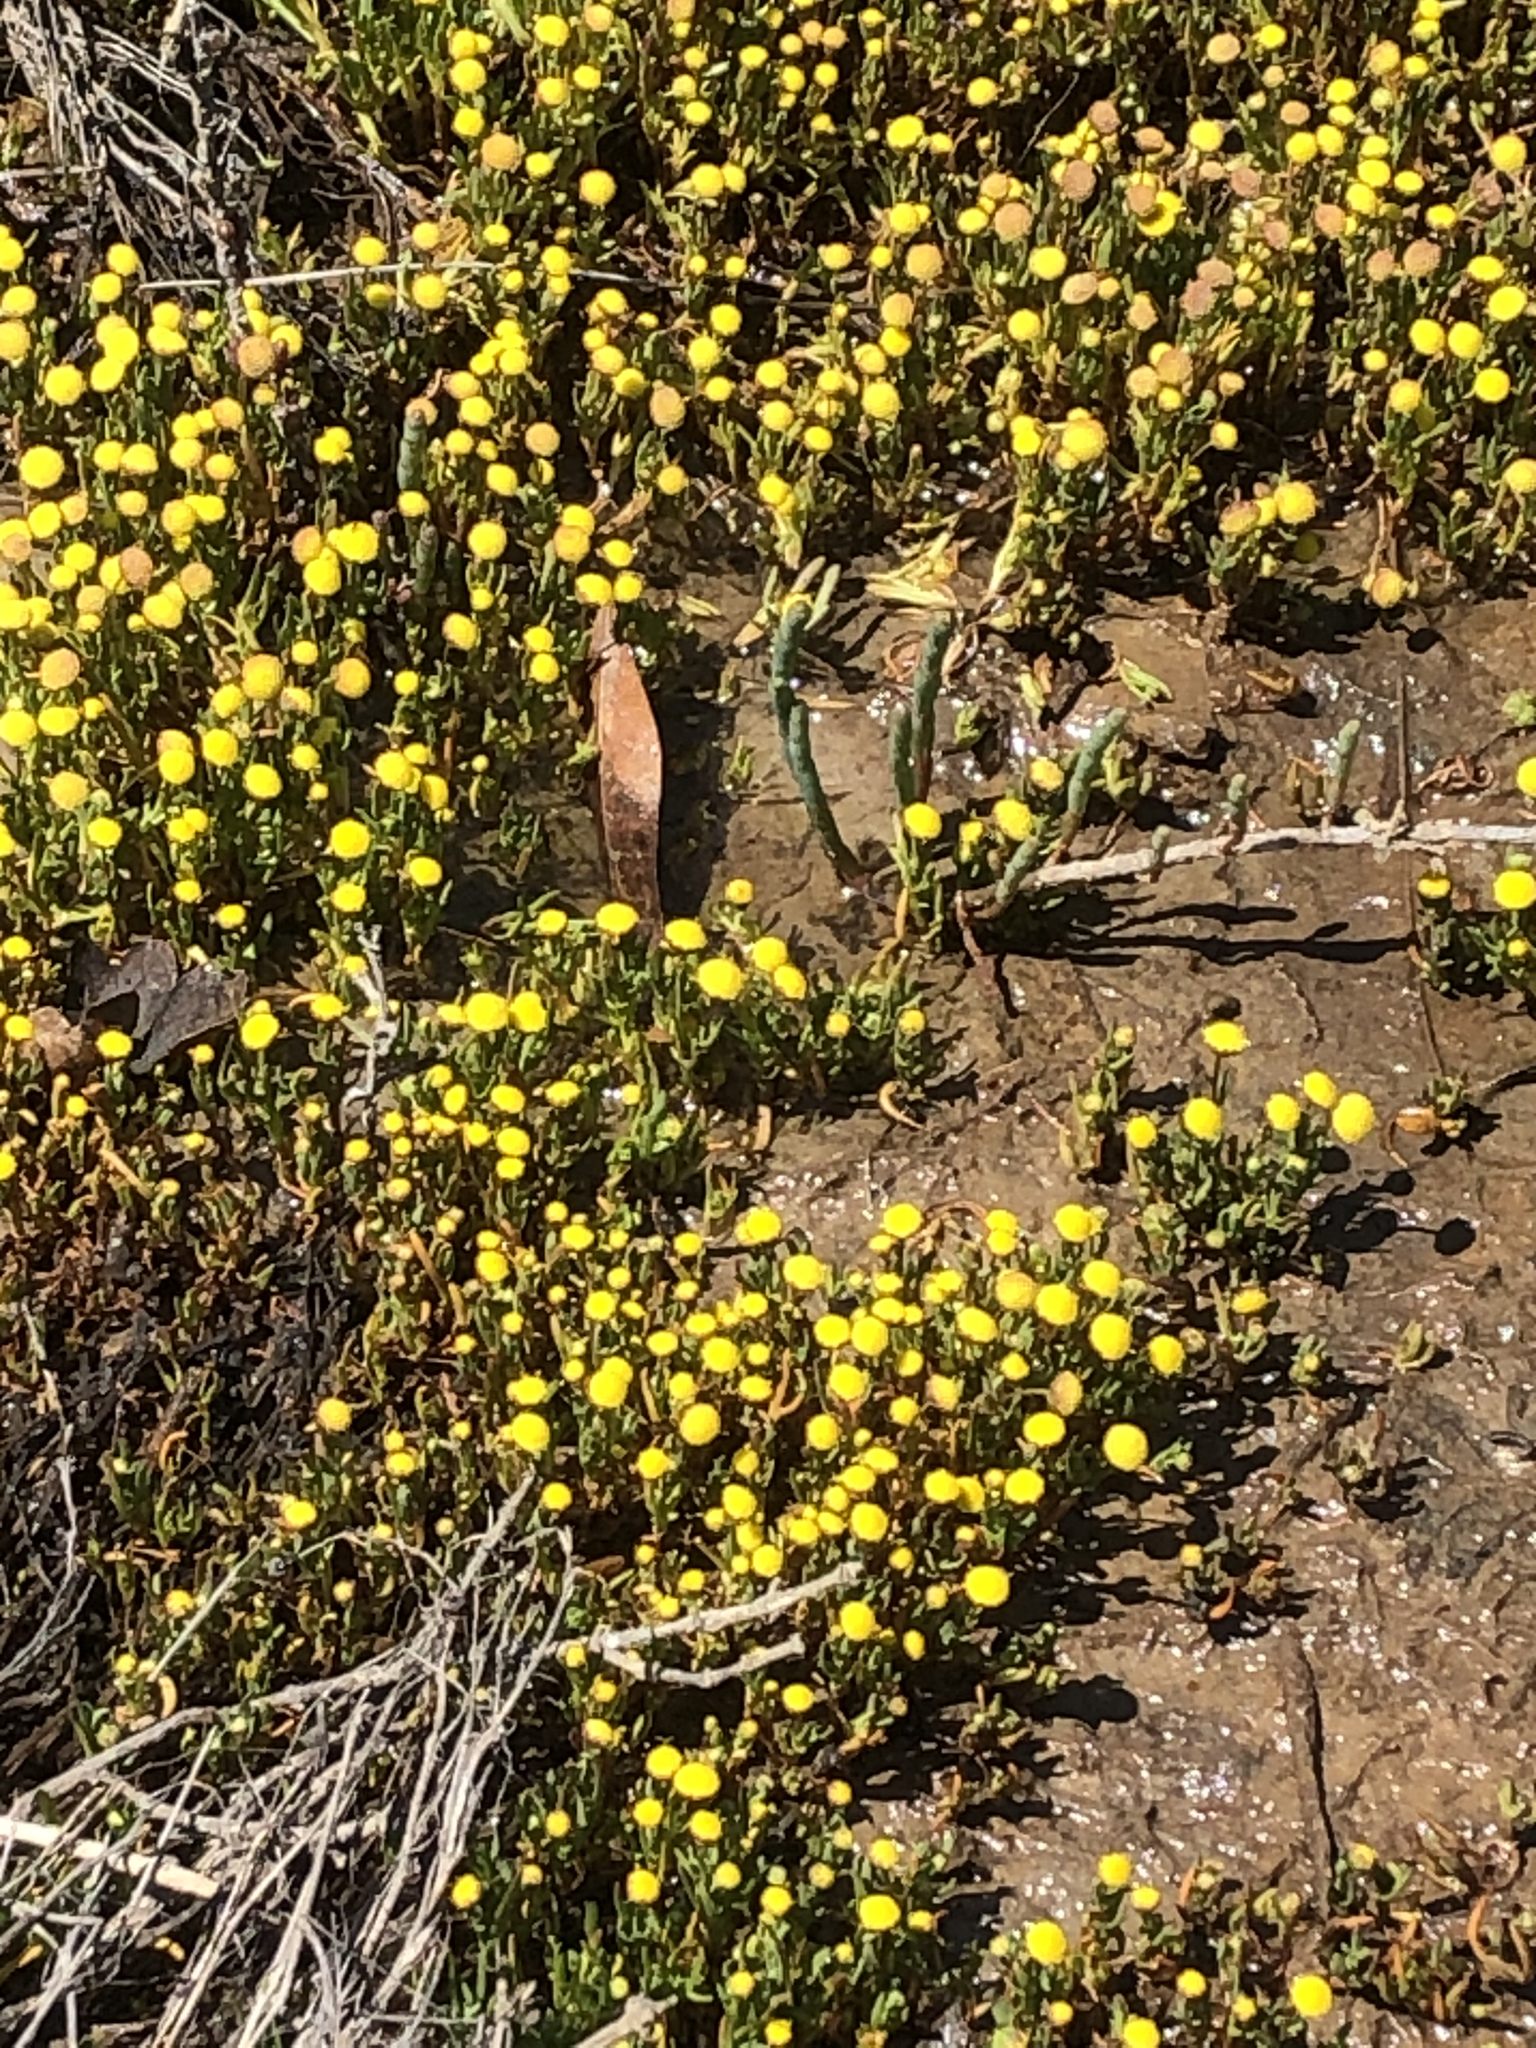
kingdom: Plantae
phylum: Tracheophyta
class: Magnoliopsida
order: Asterales
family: Asteraceae
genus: Cotula
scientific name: Cotula coronopifolia
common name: Buttonweed
